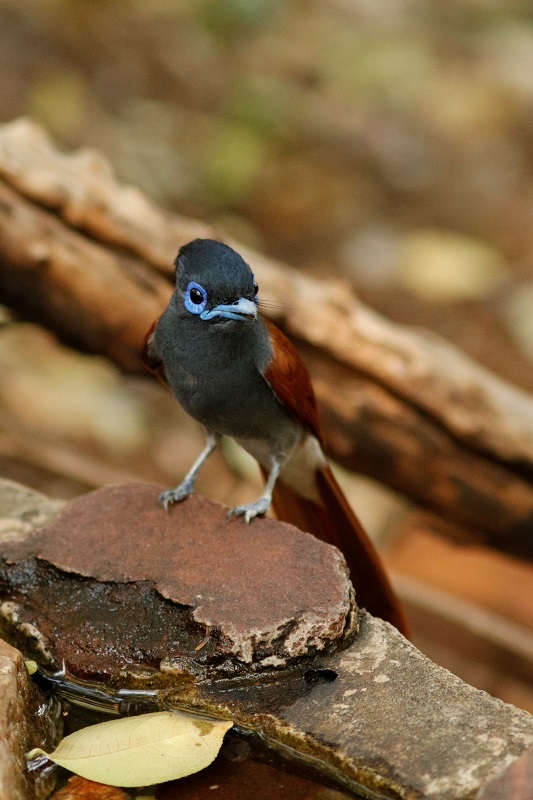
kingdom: Animalia
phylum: Chordata
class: Aves
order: Passeriformes
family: Monarchidae
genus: Terpsiphone
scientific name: Terpsiphone viridis
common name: African paradise flycatcher
